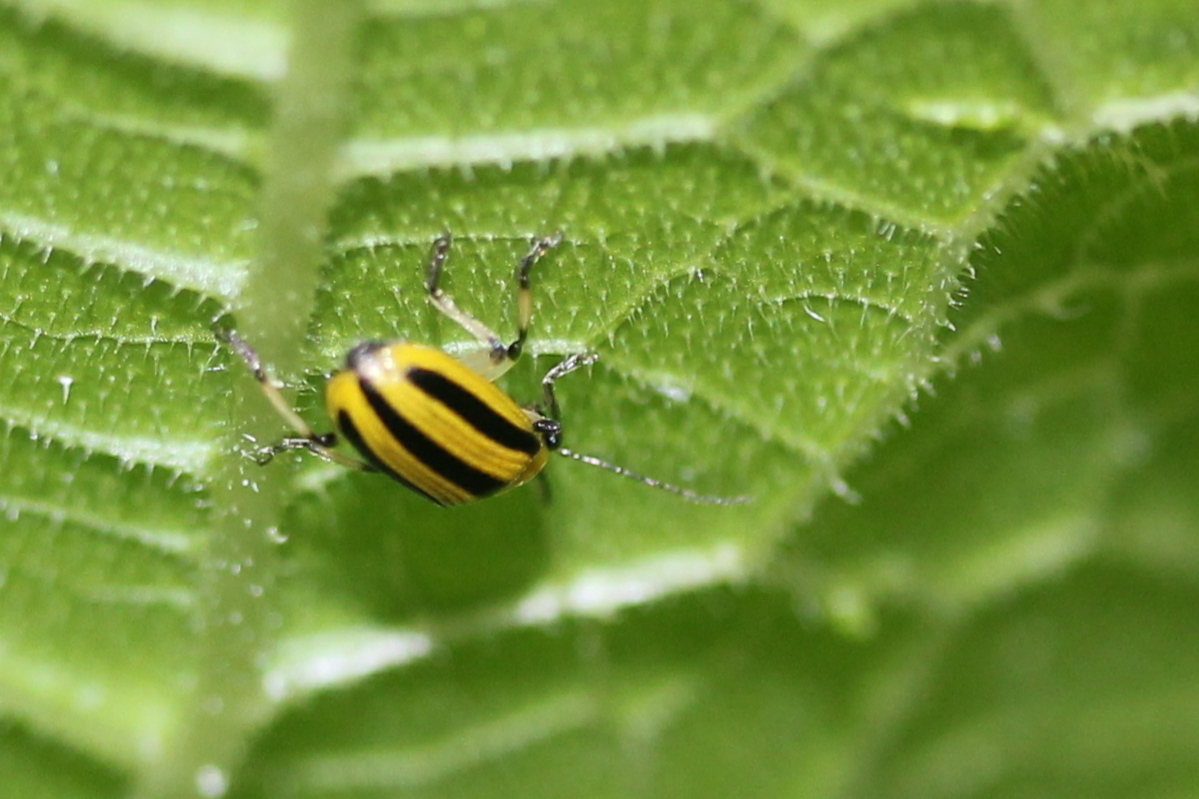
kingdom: Animalia
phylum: Arthropoda
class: Insecta
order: Coleoptera
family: Chrysomelidae
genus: Acalymma
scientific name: Acalymma vittatum
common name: Striped cucumber beetle
